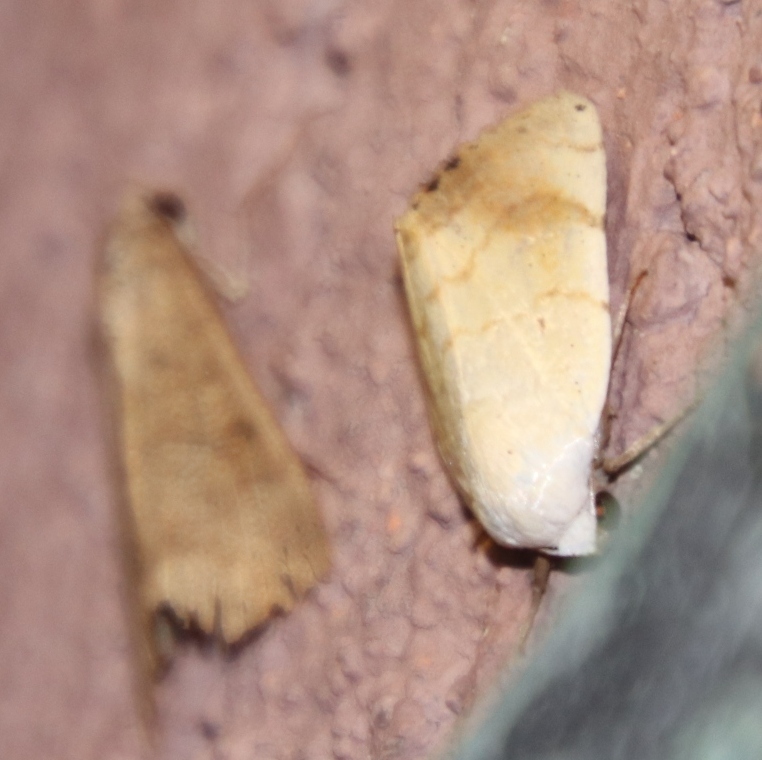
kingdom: Animalia
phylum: Arthropoda
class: Insecta
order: Lepidoptera
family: Nolidae
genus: Xanthodes
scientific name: Xanthodes albago
